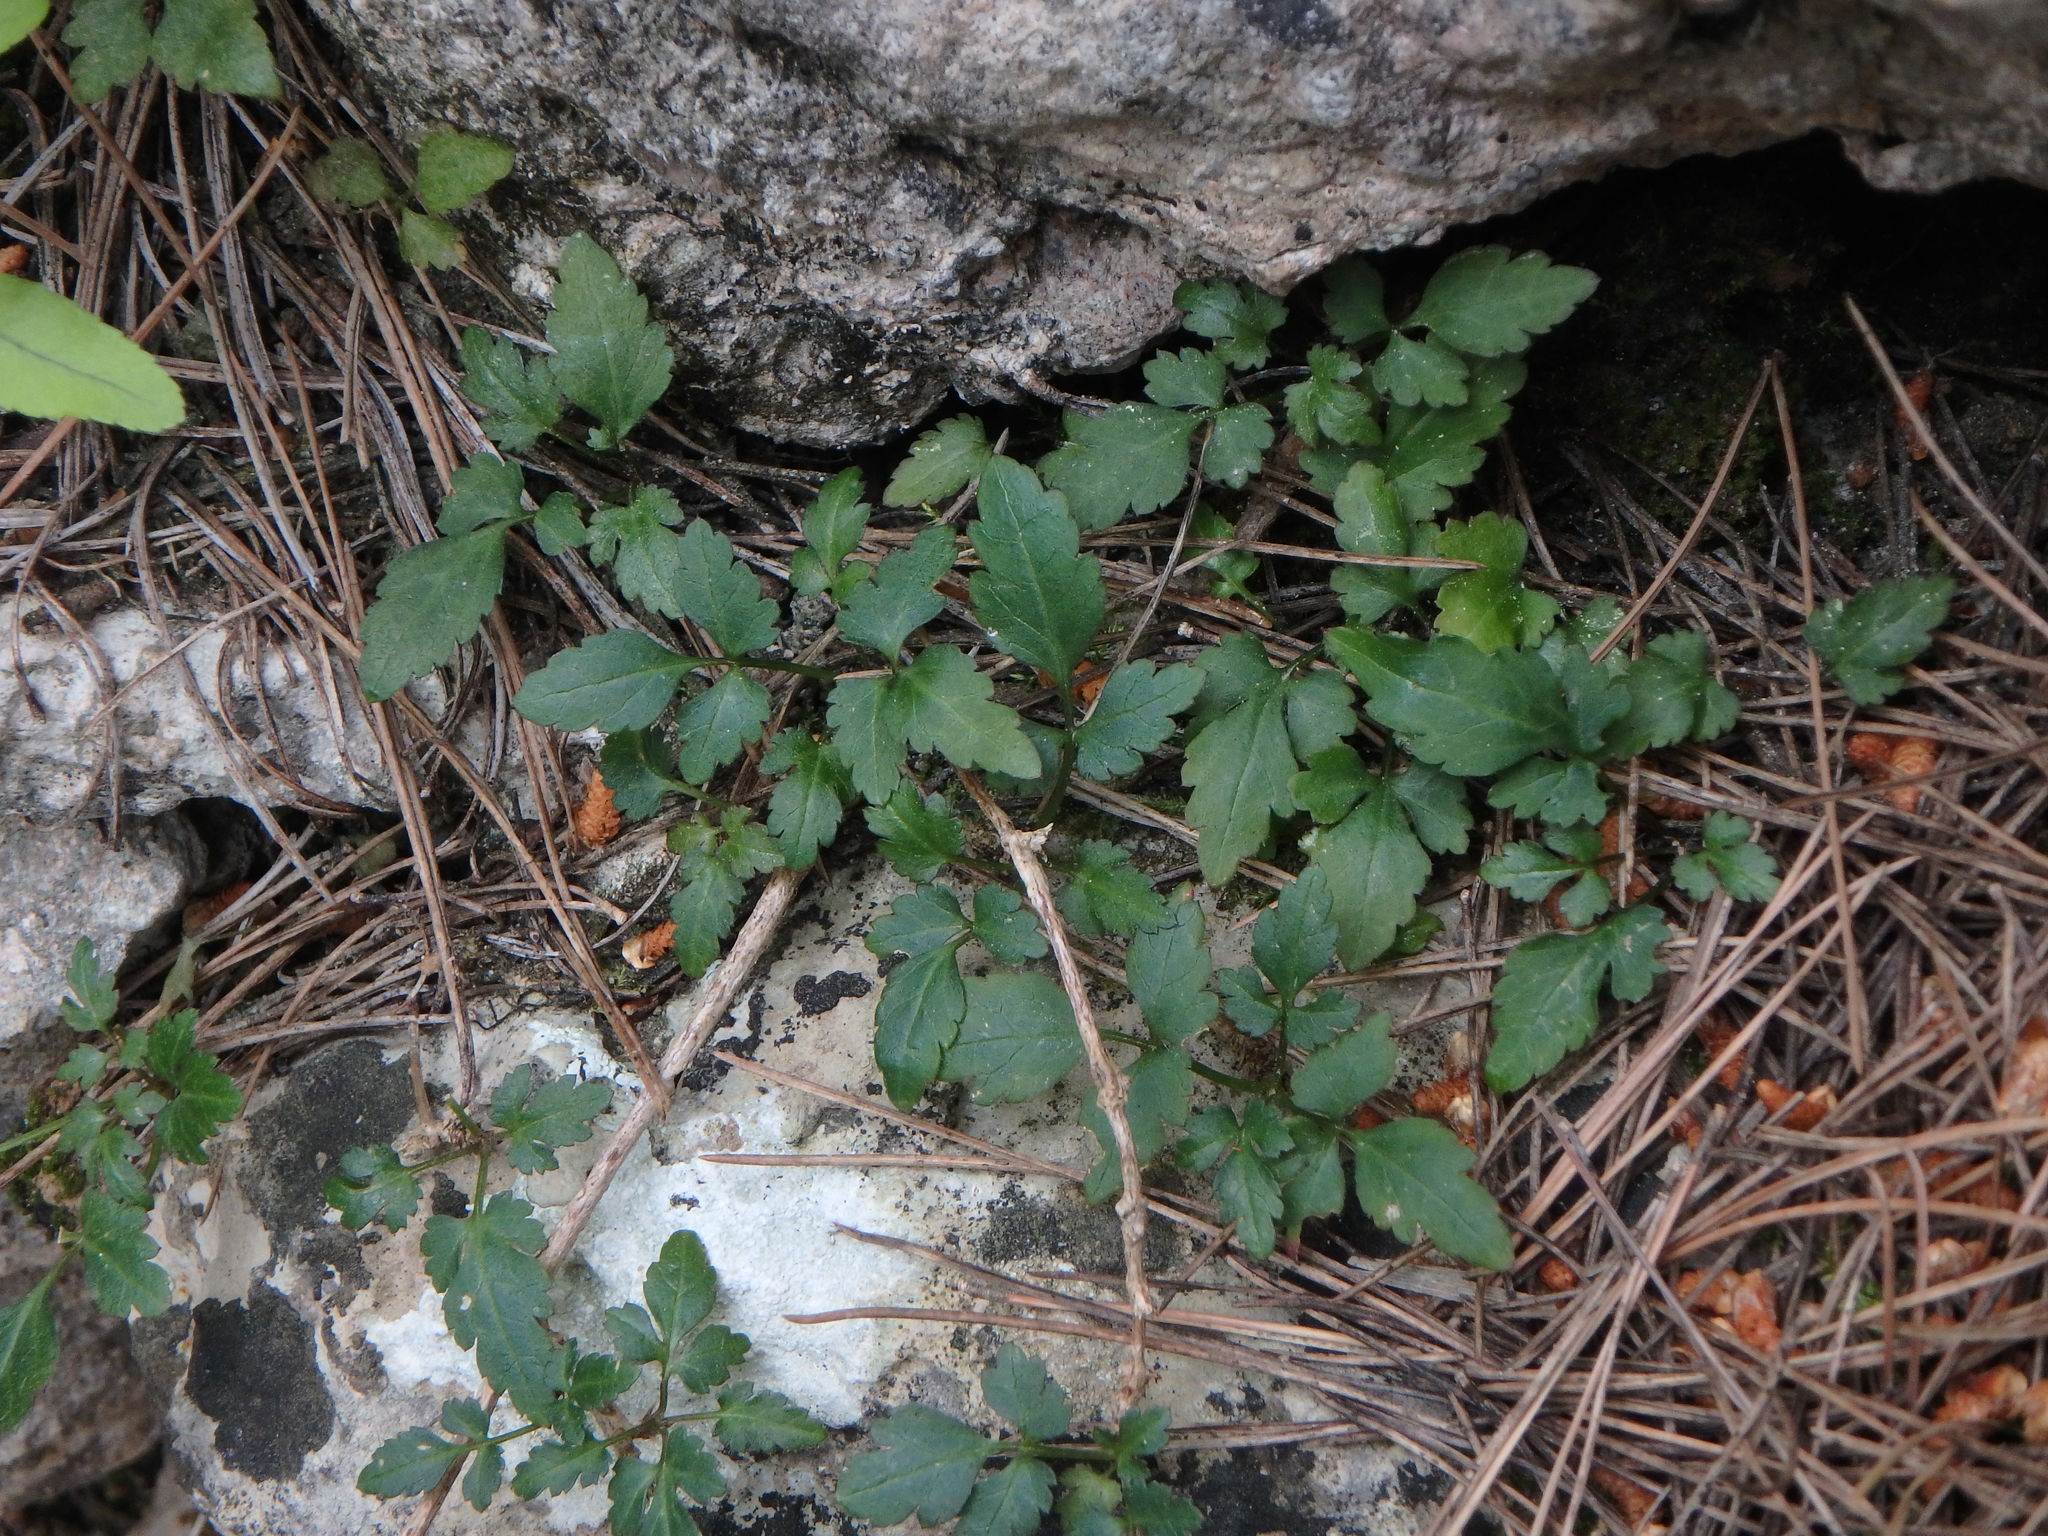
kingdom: Plantae
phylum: Tracheophyta
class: Magnoliopsida
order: Ranunculales
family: Ranunculaceae
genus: Clematis
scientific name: Clematis cirrhosa
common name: Early virgin's-bower
